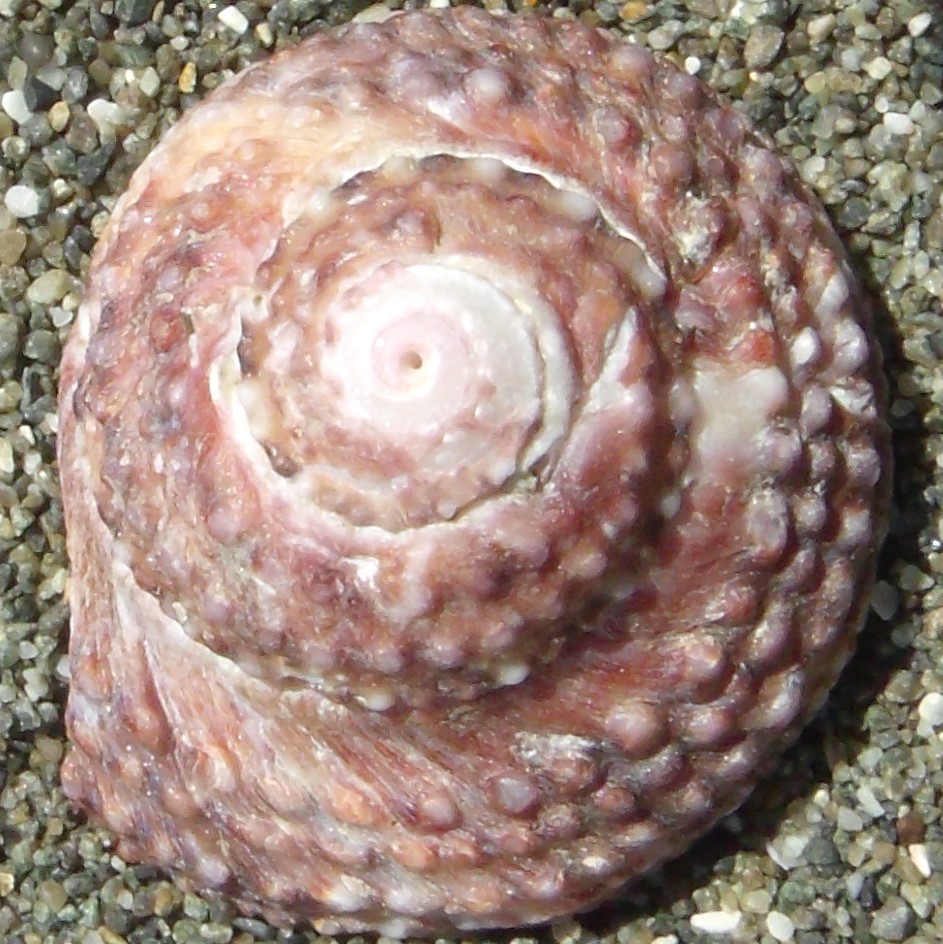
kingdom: Animalia
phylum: Mollusca
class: Gastropoda
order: Trochida
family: Turbinidae
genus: Modelia
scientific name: Modelia granosa
